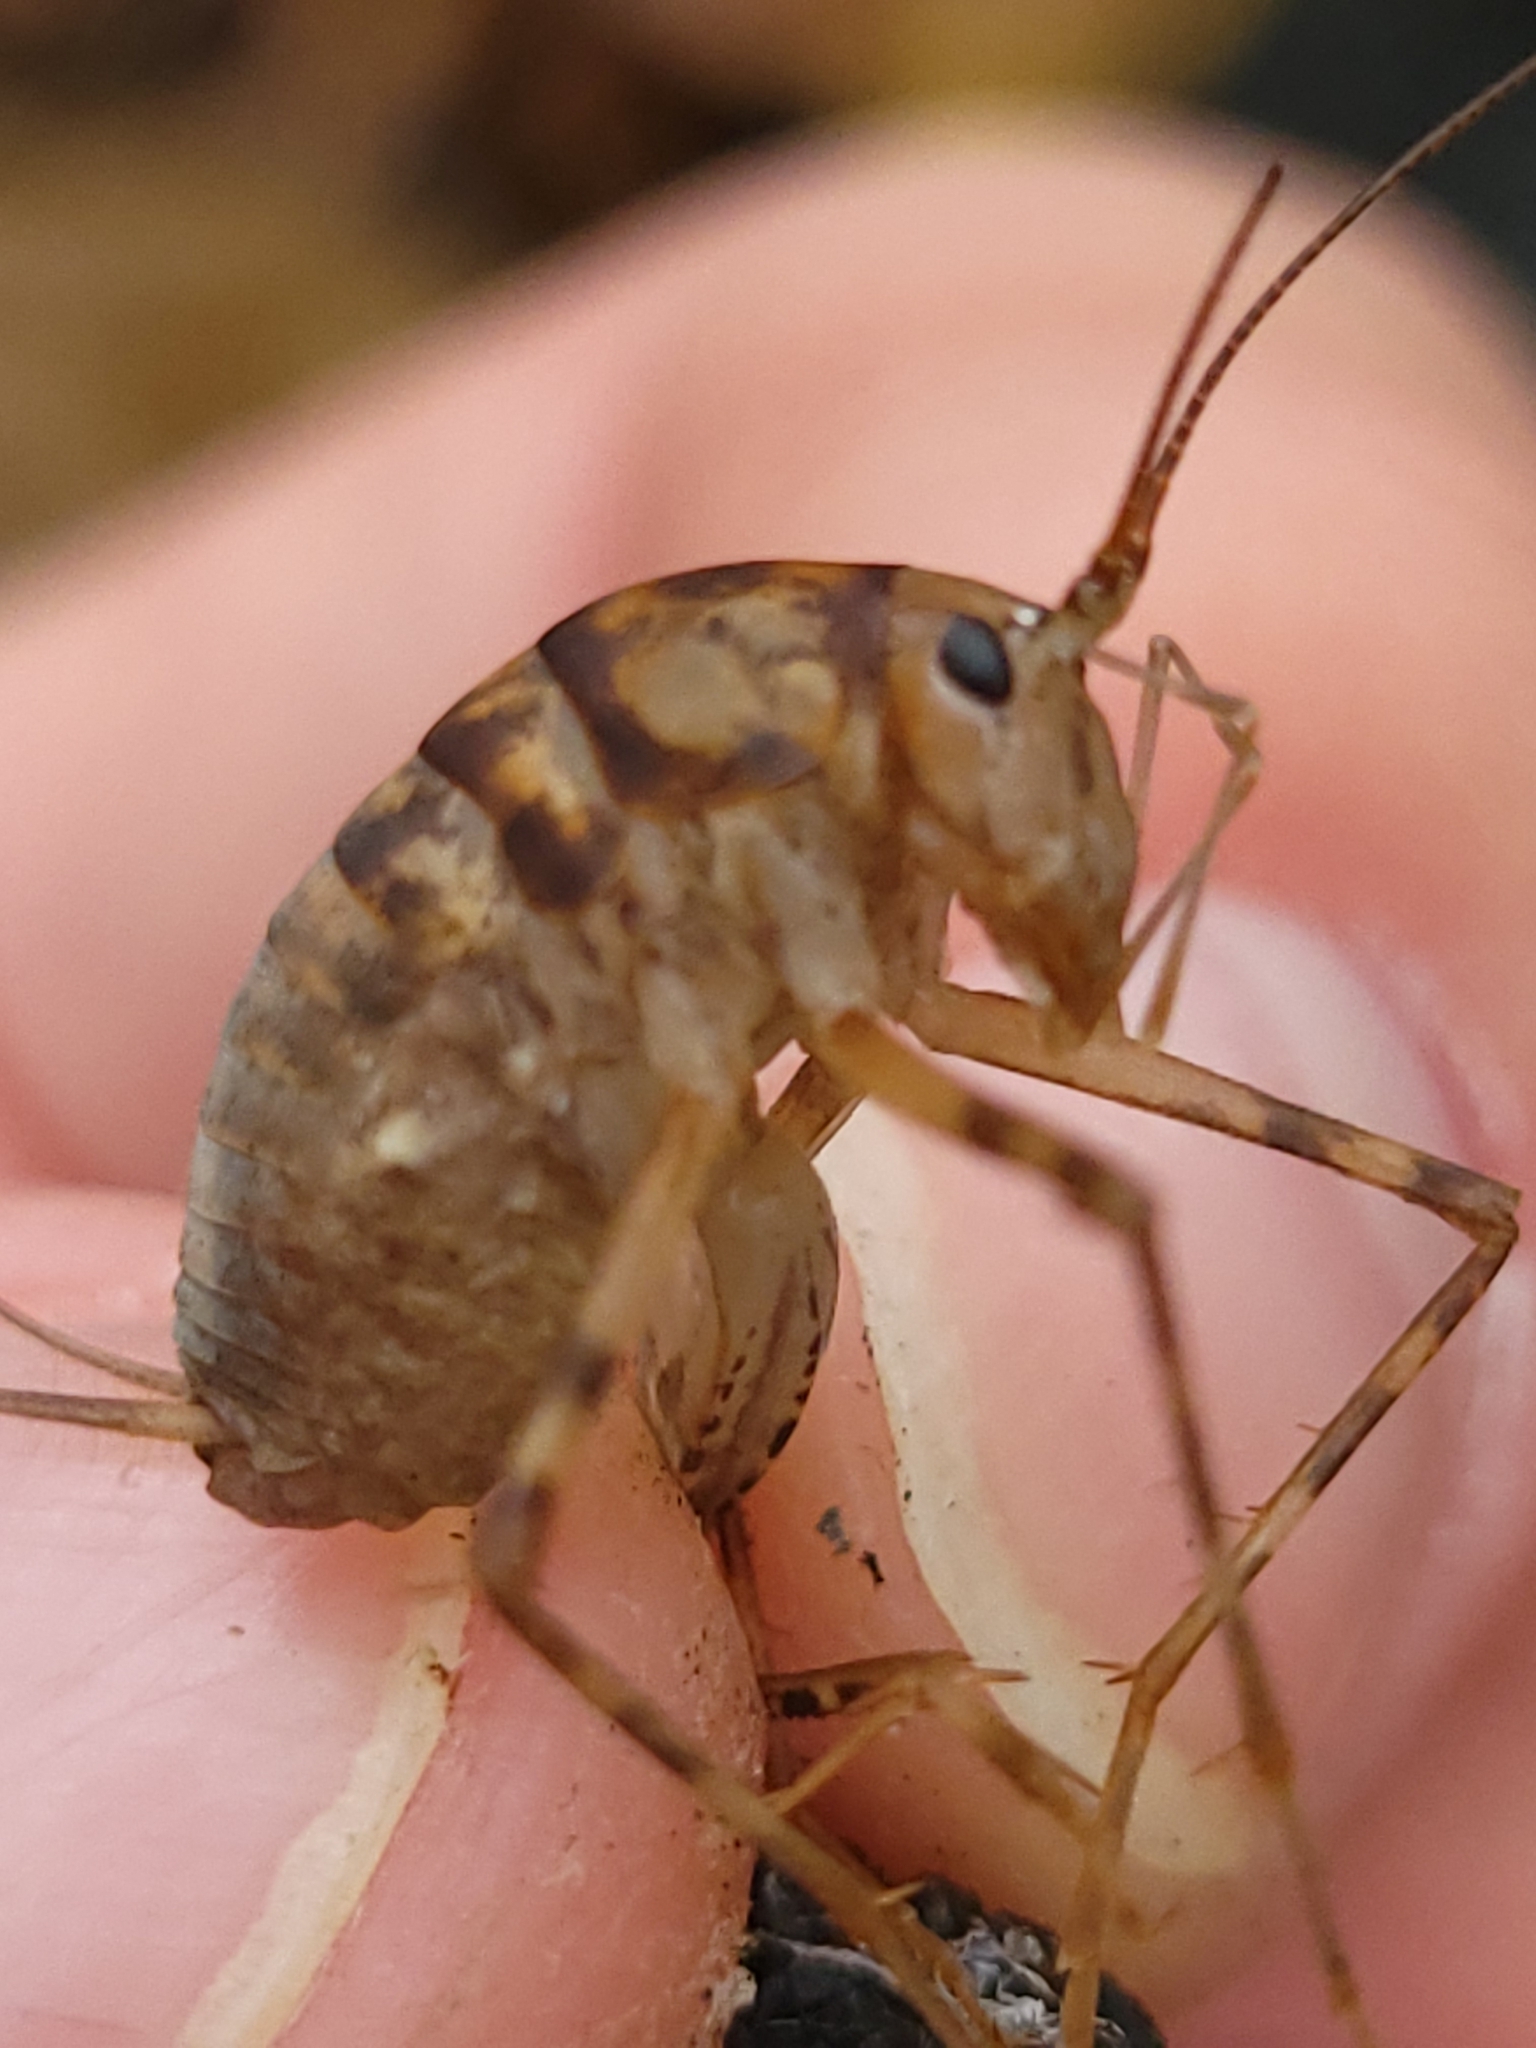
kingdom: Animalia
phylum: Arthropoda
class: Insecta
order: Orthoptera
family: Rhaphidophoridae
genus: Tachycines
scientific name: Tachycines asynamorus
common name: Greenhouse camel cricket
